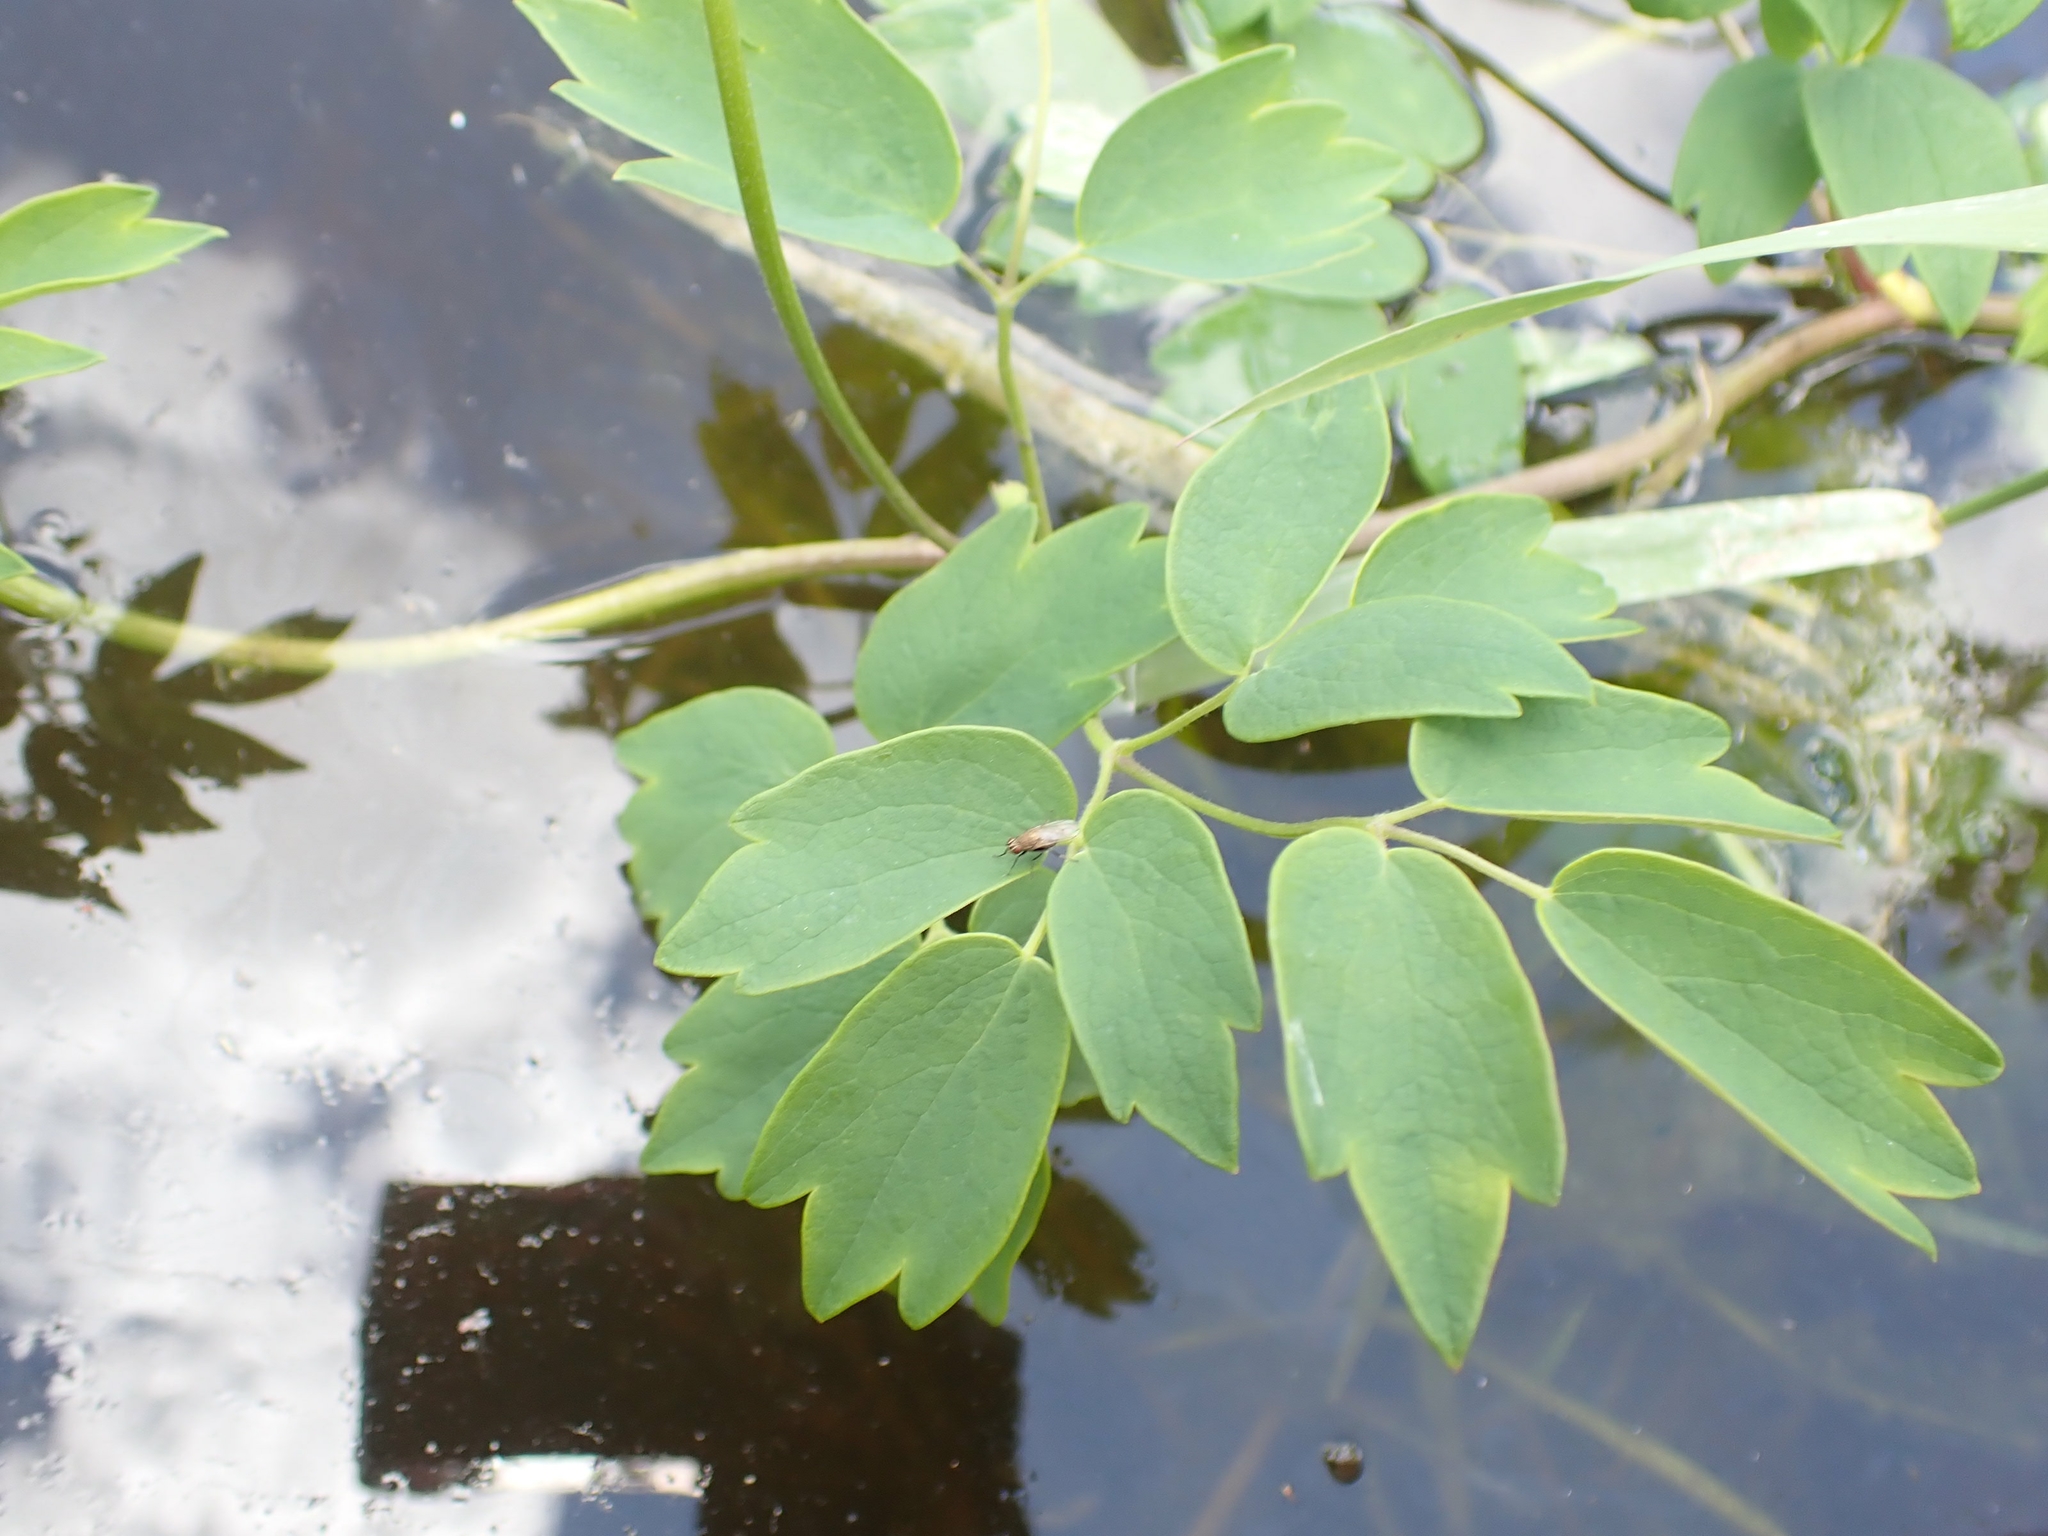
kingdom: Plantae
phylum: Tracheophyta
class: Magnoliopsida
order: Ranunculales
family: Ranunculaceae
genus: Thalictrum
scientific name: Thalictrum dasycarpum
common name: Purple meadow-rue
